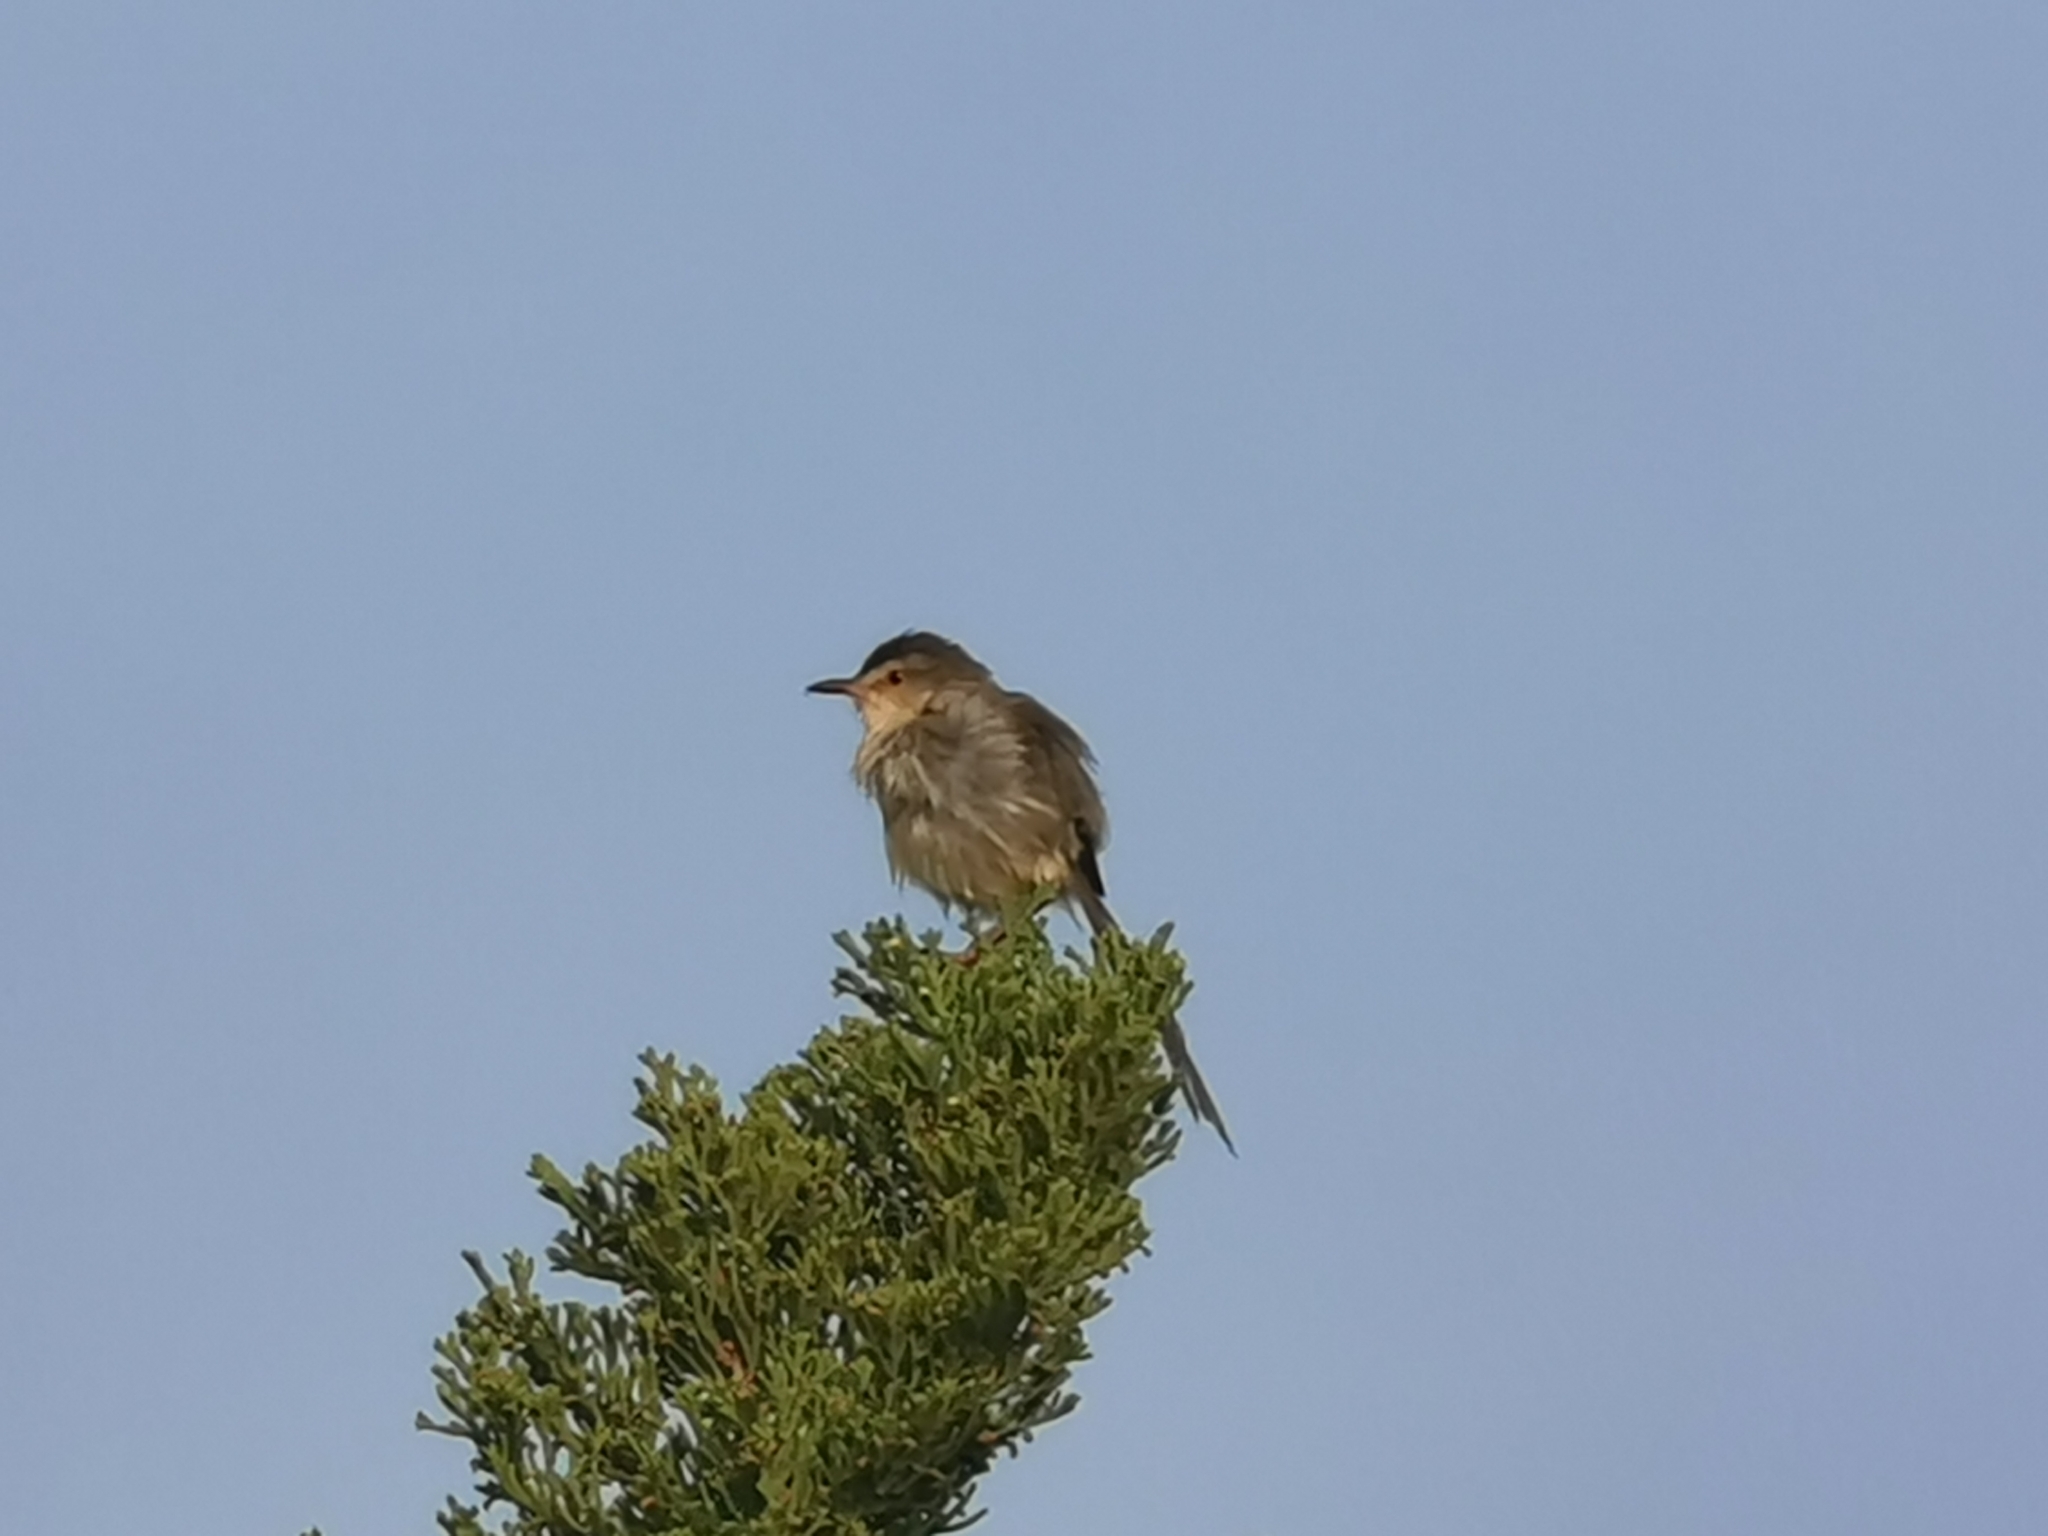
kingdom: Animalia
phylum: Chordata
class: Aves
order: Passeriformes
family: Cisticolidae
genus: Prinia
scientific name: Prinia inornata
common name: Plain prinia
